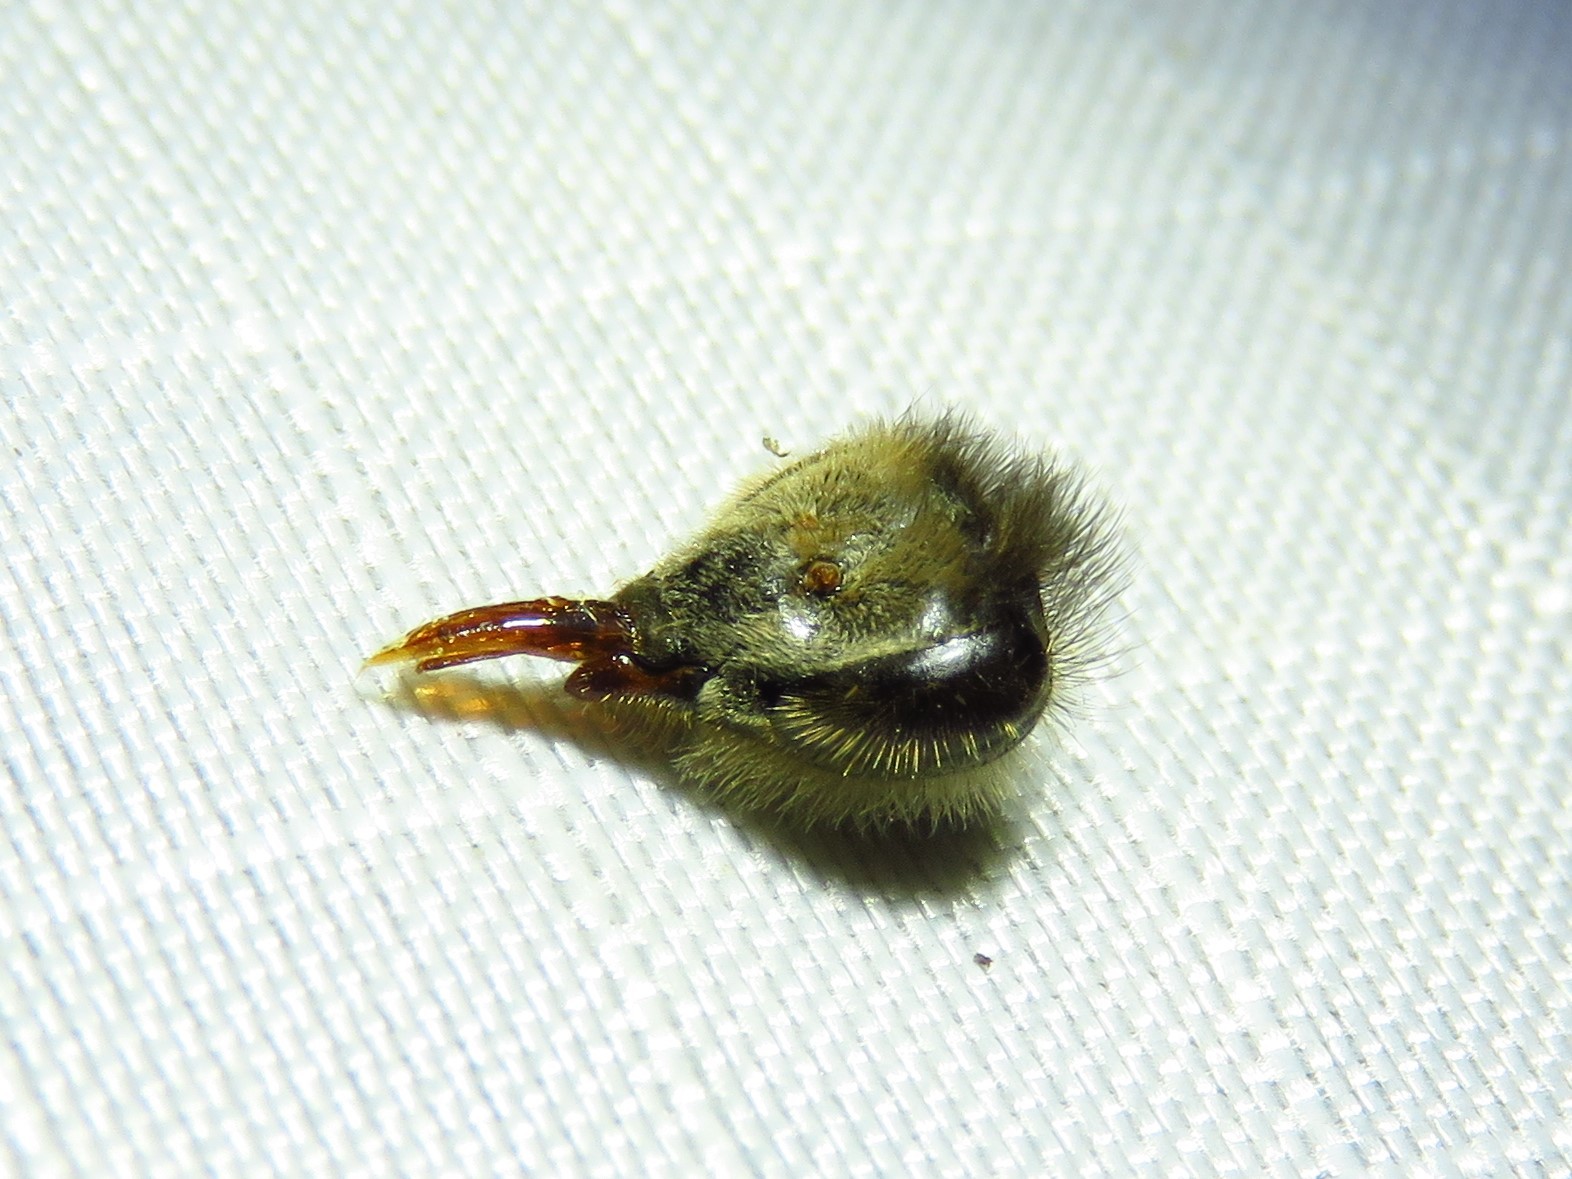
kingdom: Animalia
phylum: Arthropoda
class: Insecta
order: Hymenoptera
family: Apidae
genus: Apis
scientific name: Apis mellifera
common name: Honey bee
